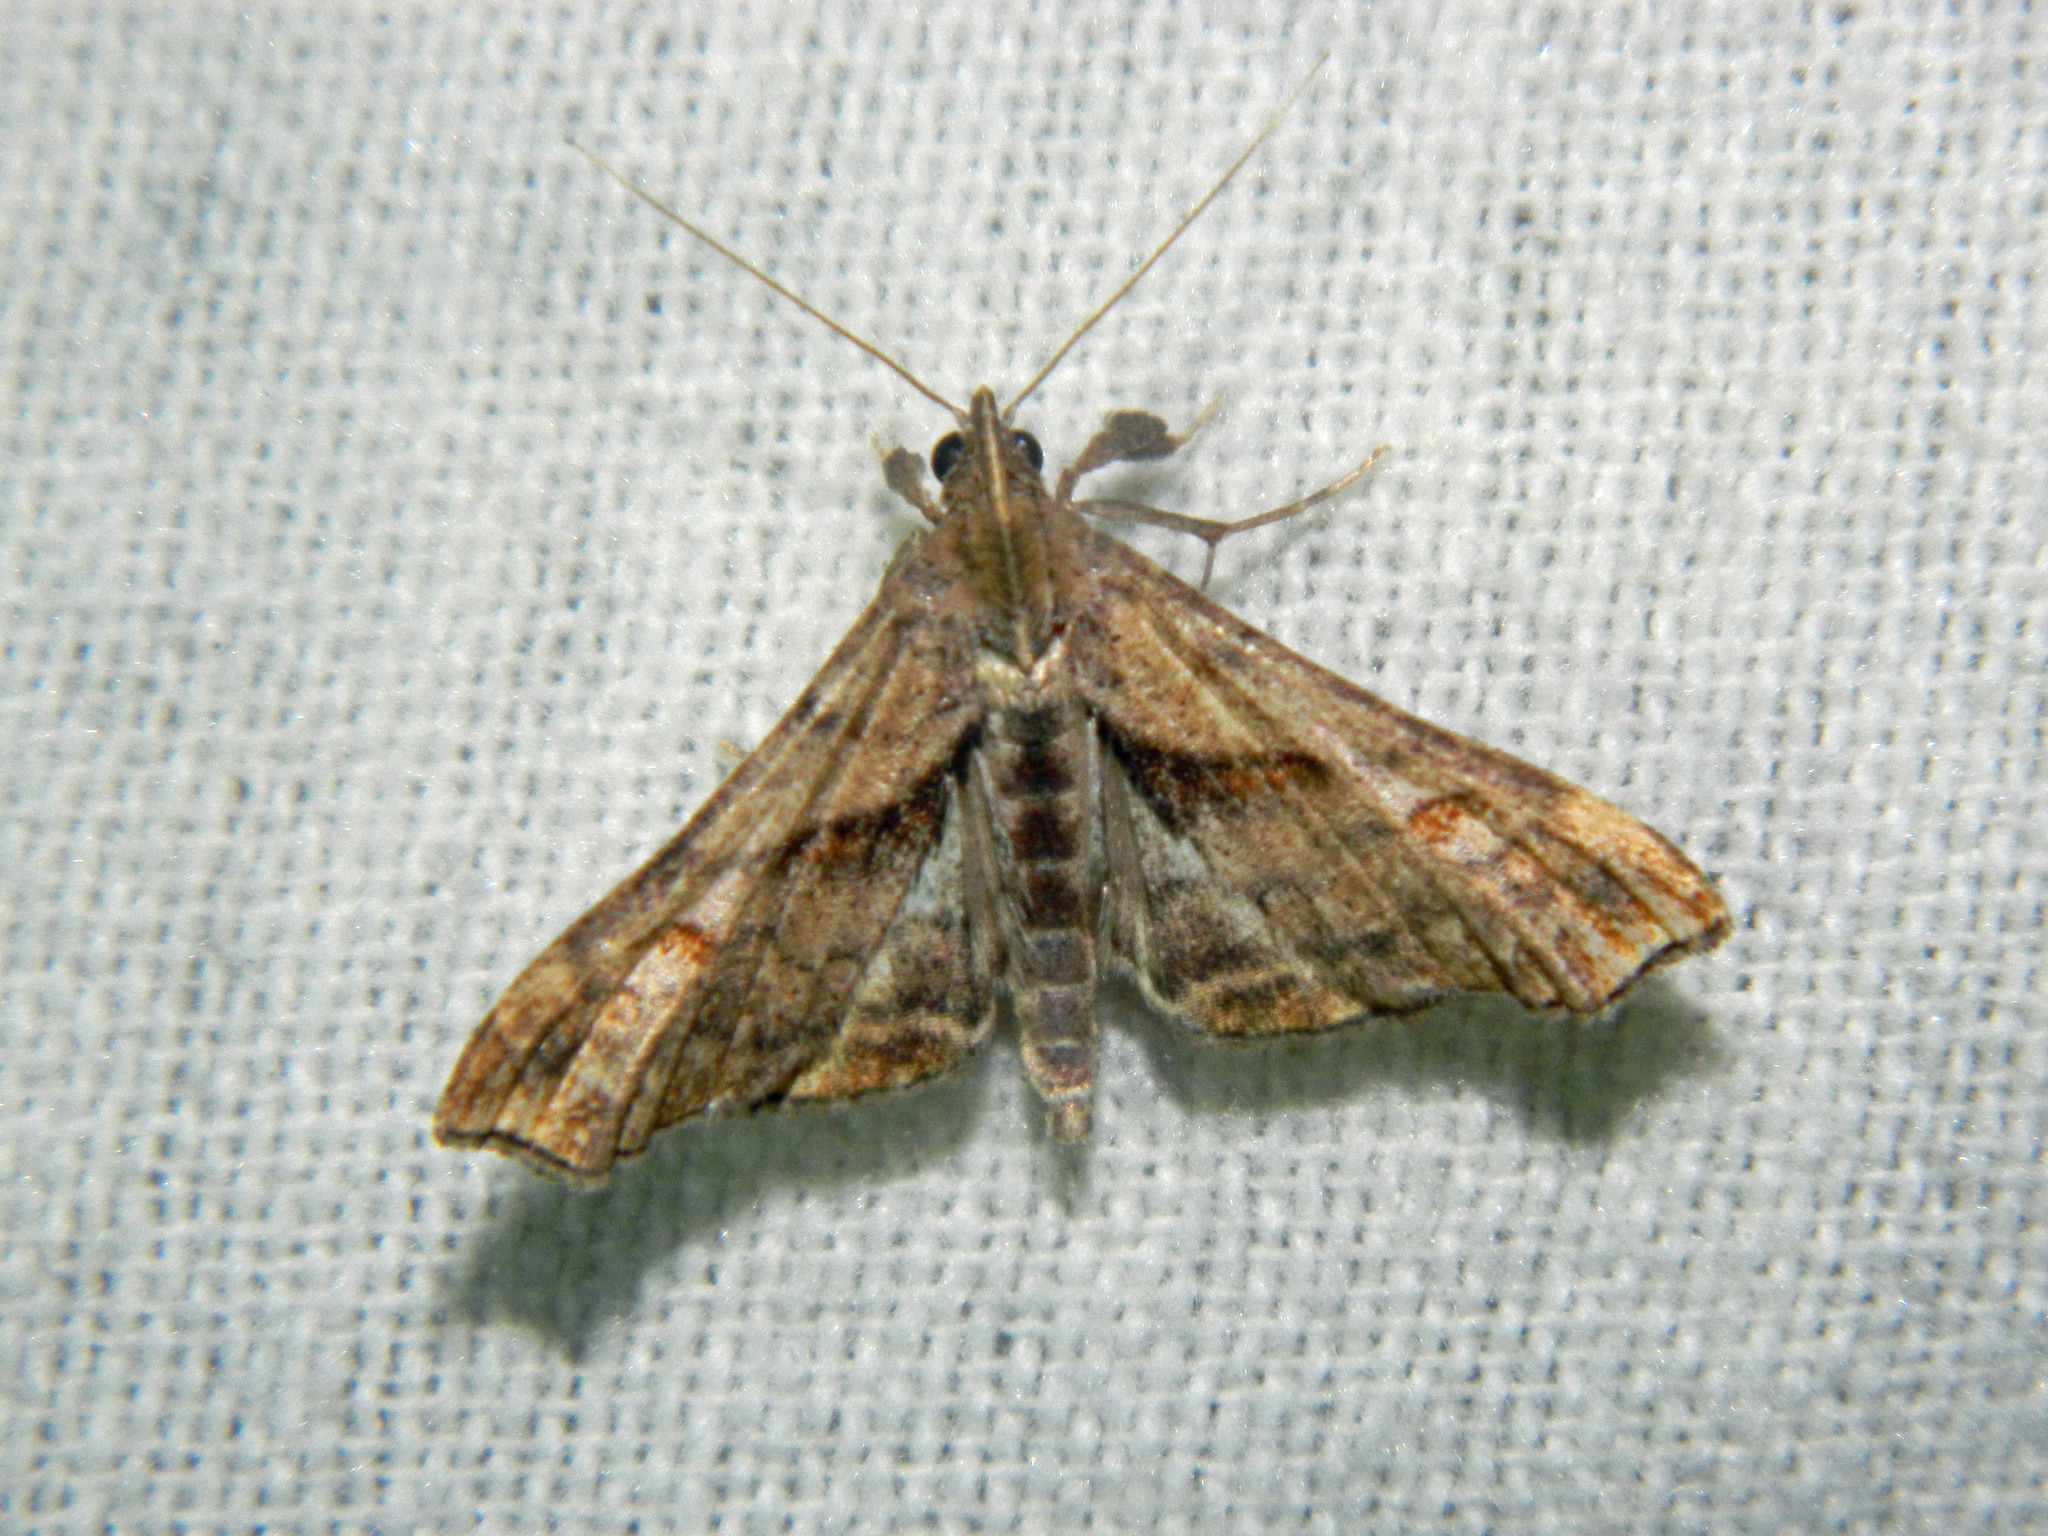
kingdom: Animalia
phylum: Arthropoda
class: Insecta
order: Lepidoptera
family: Erebidae
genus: Palthis
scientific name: Palthis angulalis
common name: Dark-spotted palthis moth
